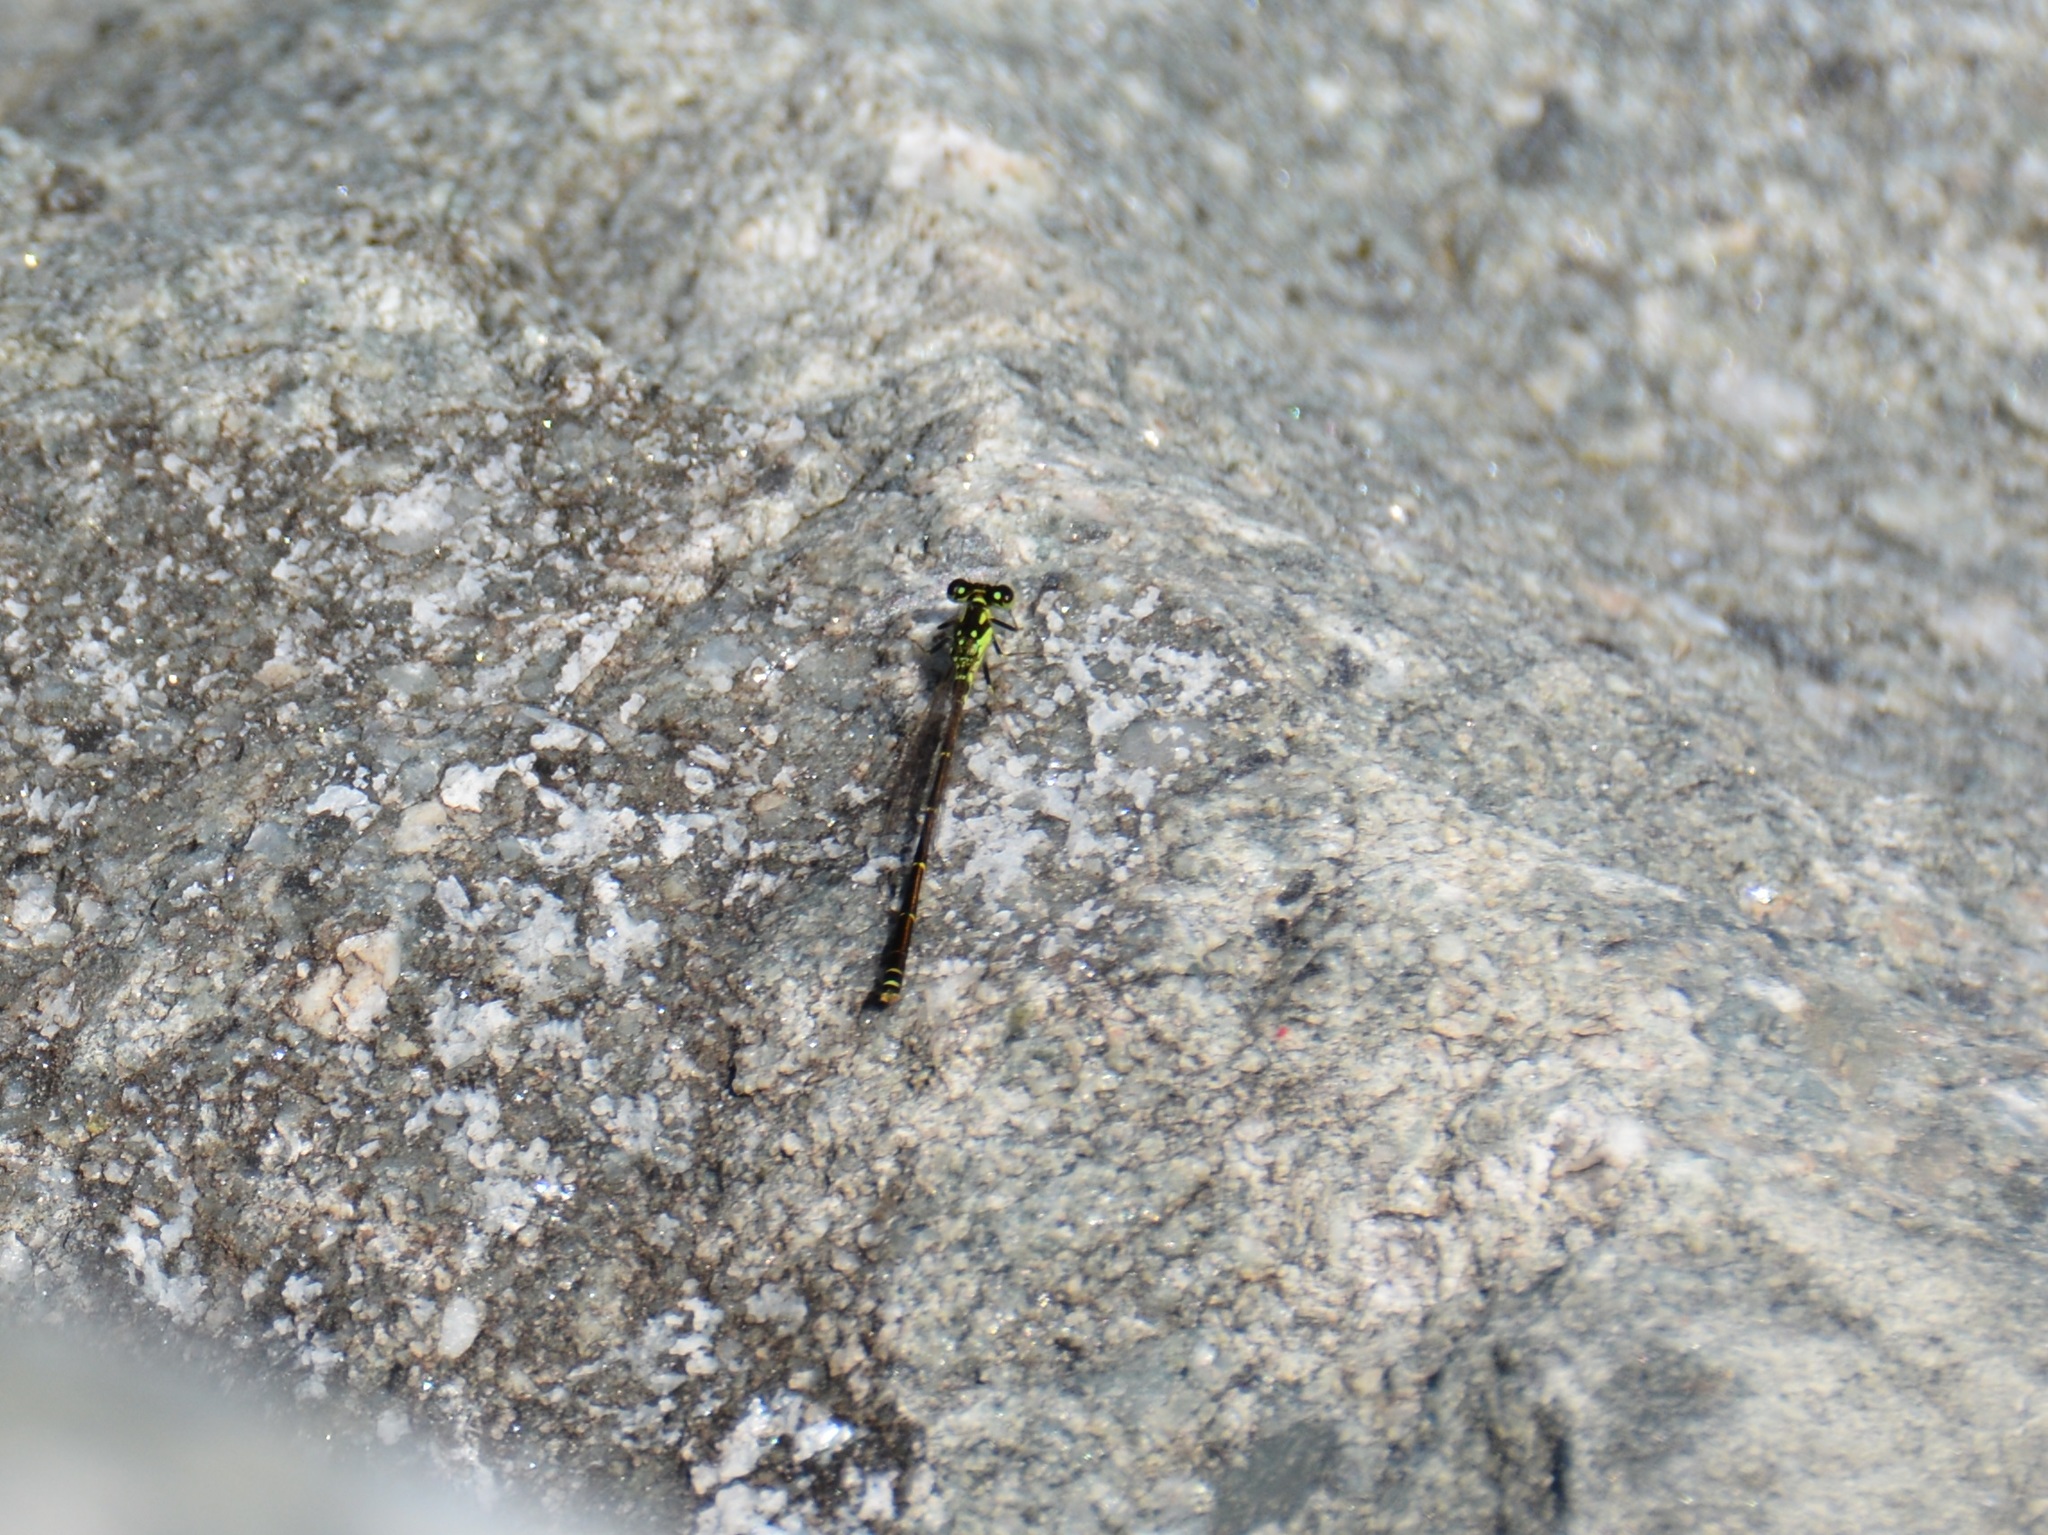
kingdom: Animalia
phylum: Arthropoda
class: Insecta
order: Odonata
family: Coenagrionidae
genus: Ischnura
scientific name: Ischnura posita
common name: Fragile forktail
